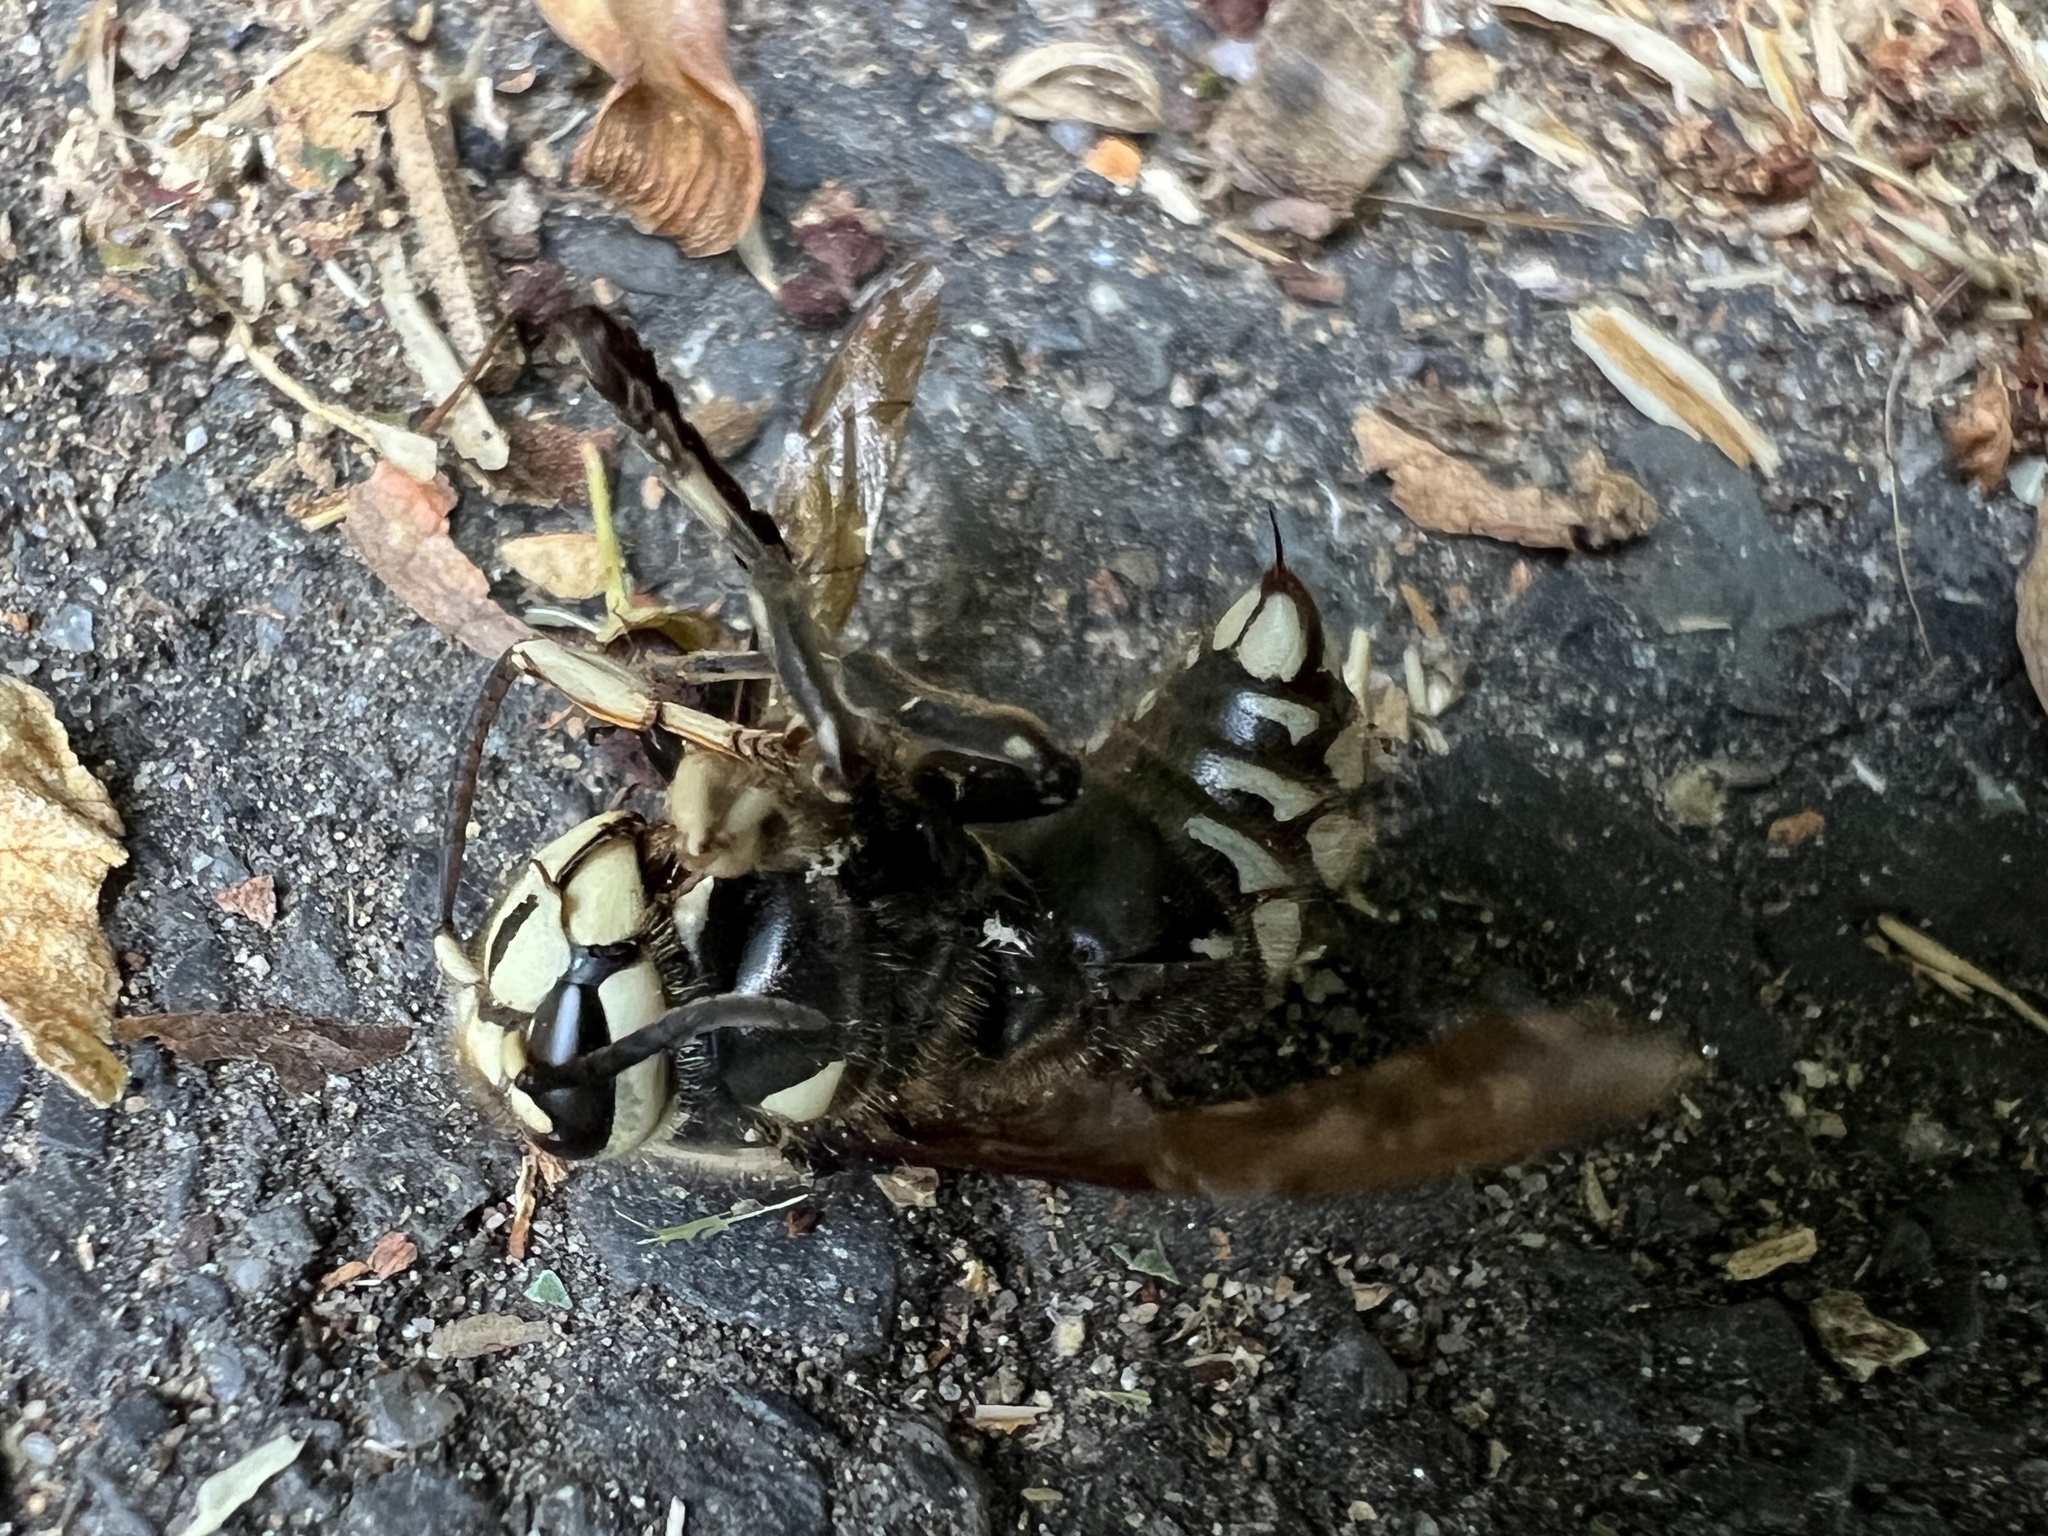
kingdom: Animalia
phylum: Arthropoda
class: Insecta
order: Hymenoptera
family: Vespidae
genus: Dolichovespula
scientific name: Dolichovespula maculata
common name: Bald-faced hornet
